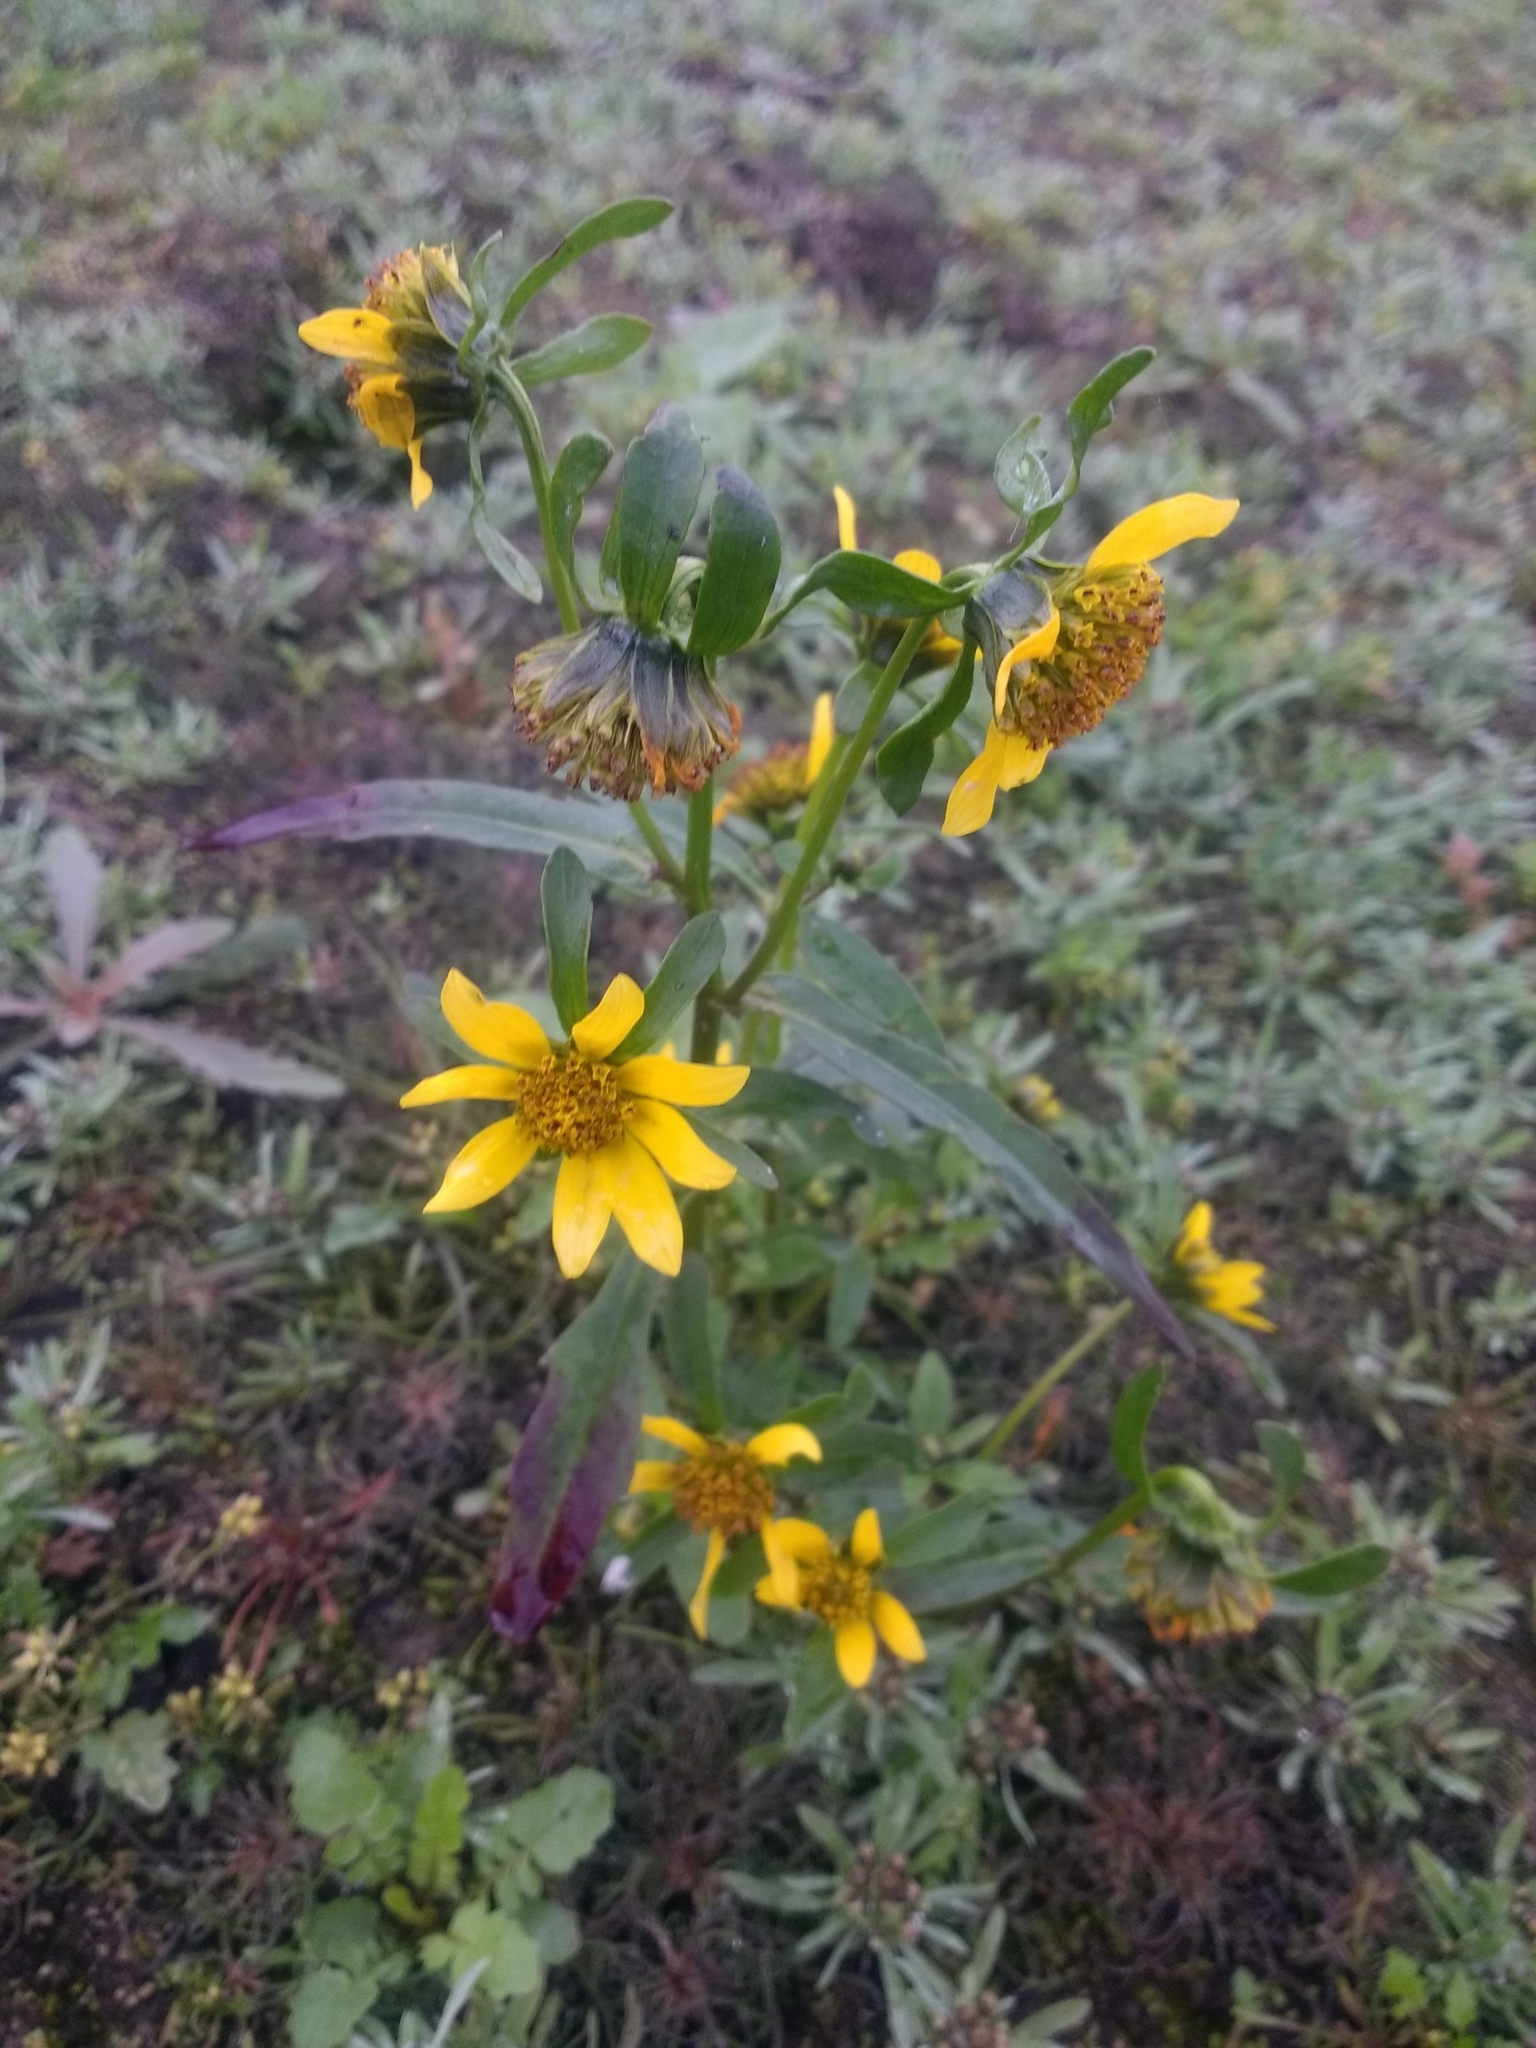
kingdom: Plantae
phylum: Tracheophyta
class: Magnoliopsida
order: Asterales
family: Asteraceae
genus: Bidens
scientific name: Bidens cernua
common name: Nodding bur-marigold
